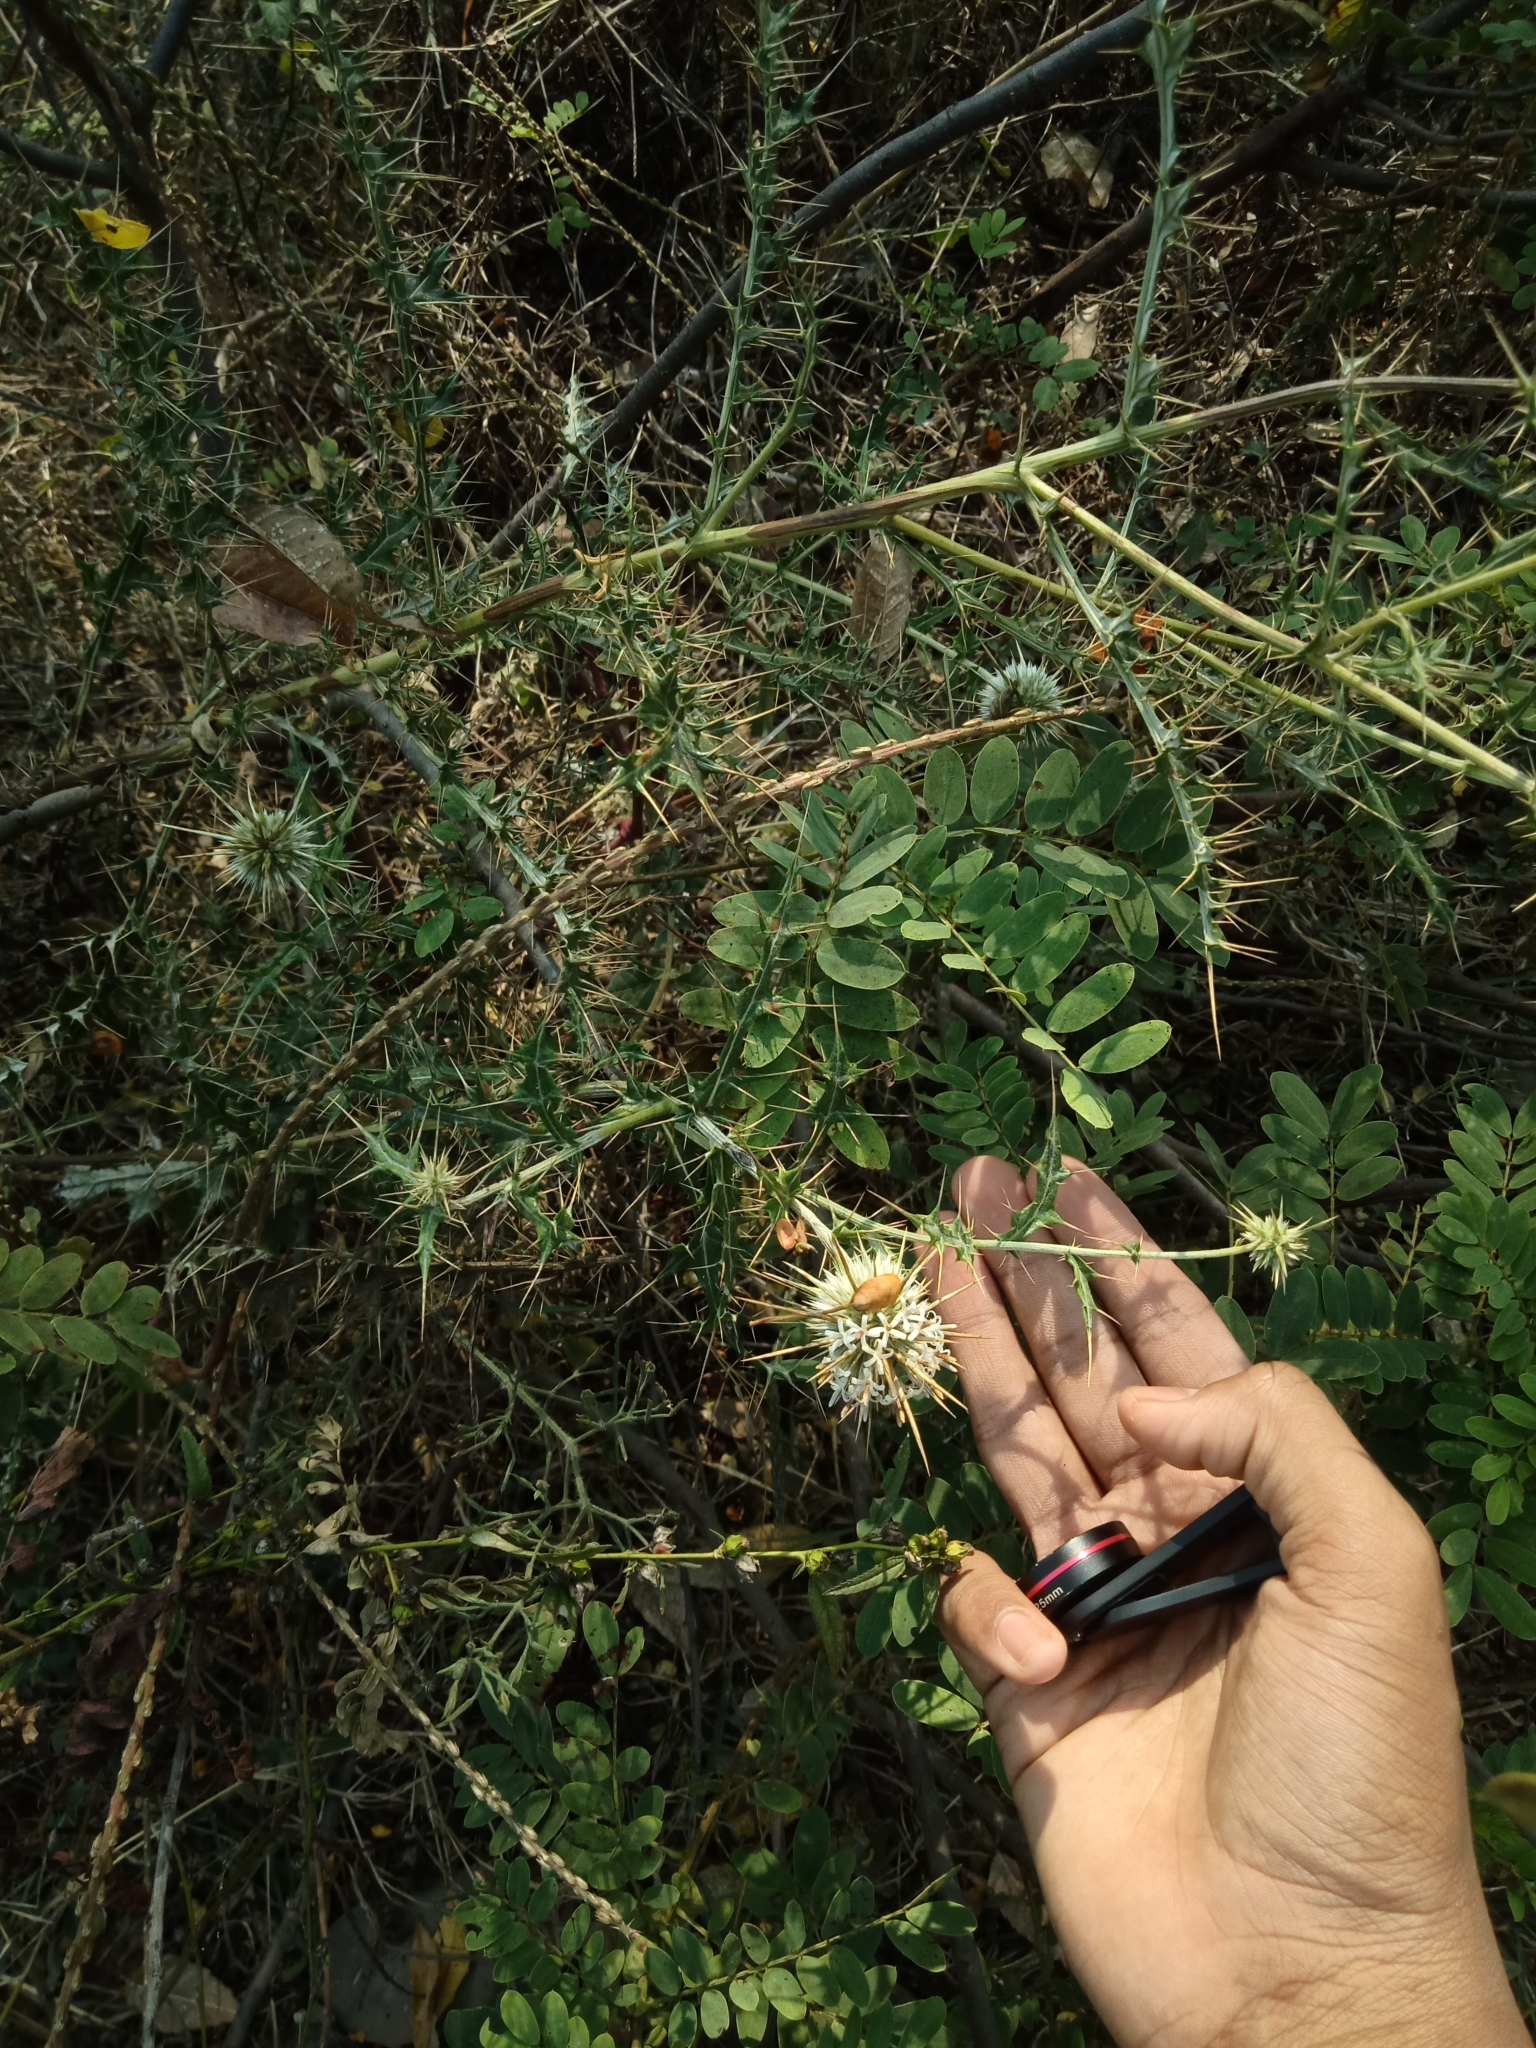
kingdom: Plantae
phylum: Tracheophyta
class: Magnoliopsida
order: Asterales
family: Asteraceae
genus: Echinops
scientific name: Echinops echinatus
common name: Indian globe thistle
